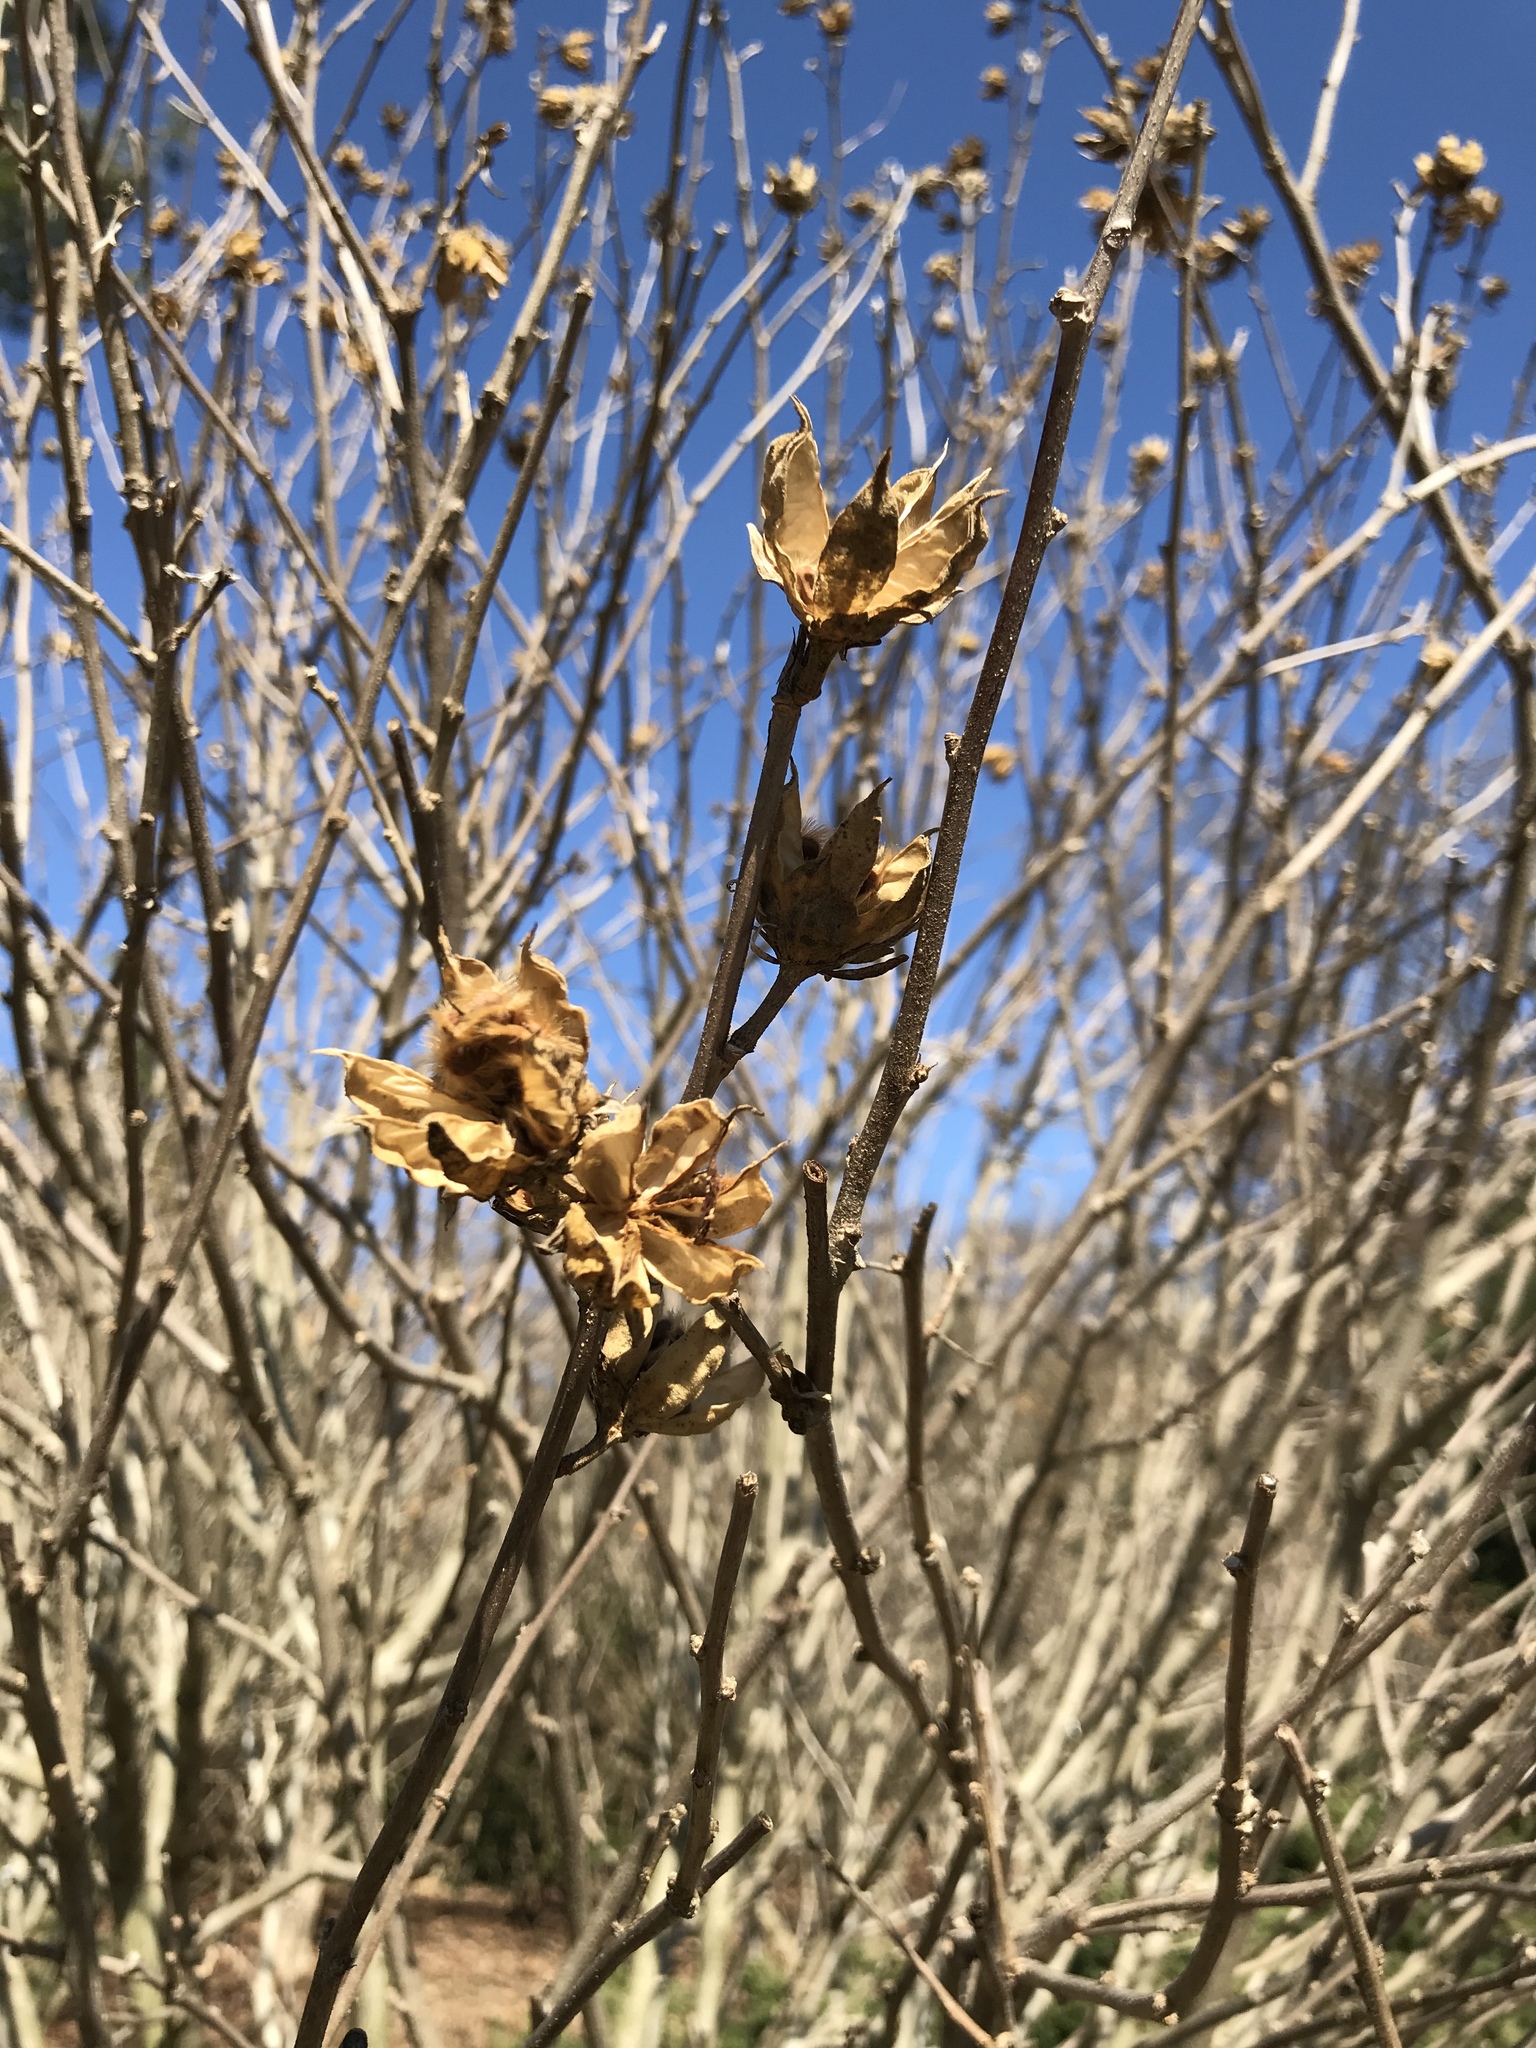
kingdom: Plantae
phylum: Tracheophyta
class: Magnoliopsida
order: Malvales
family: Malvaceae
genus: Hibiscus
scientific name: Hibiscus syriacus
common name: Syrian ketmia
